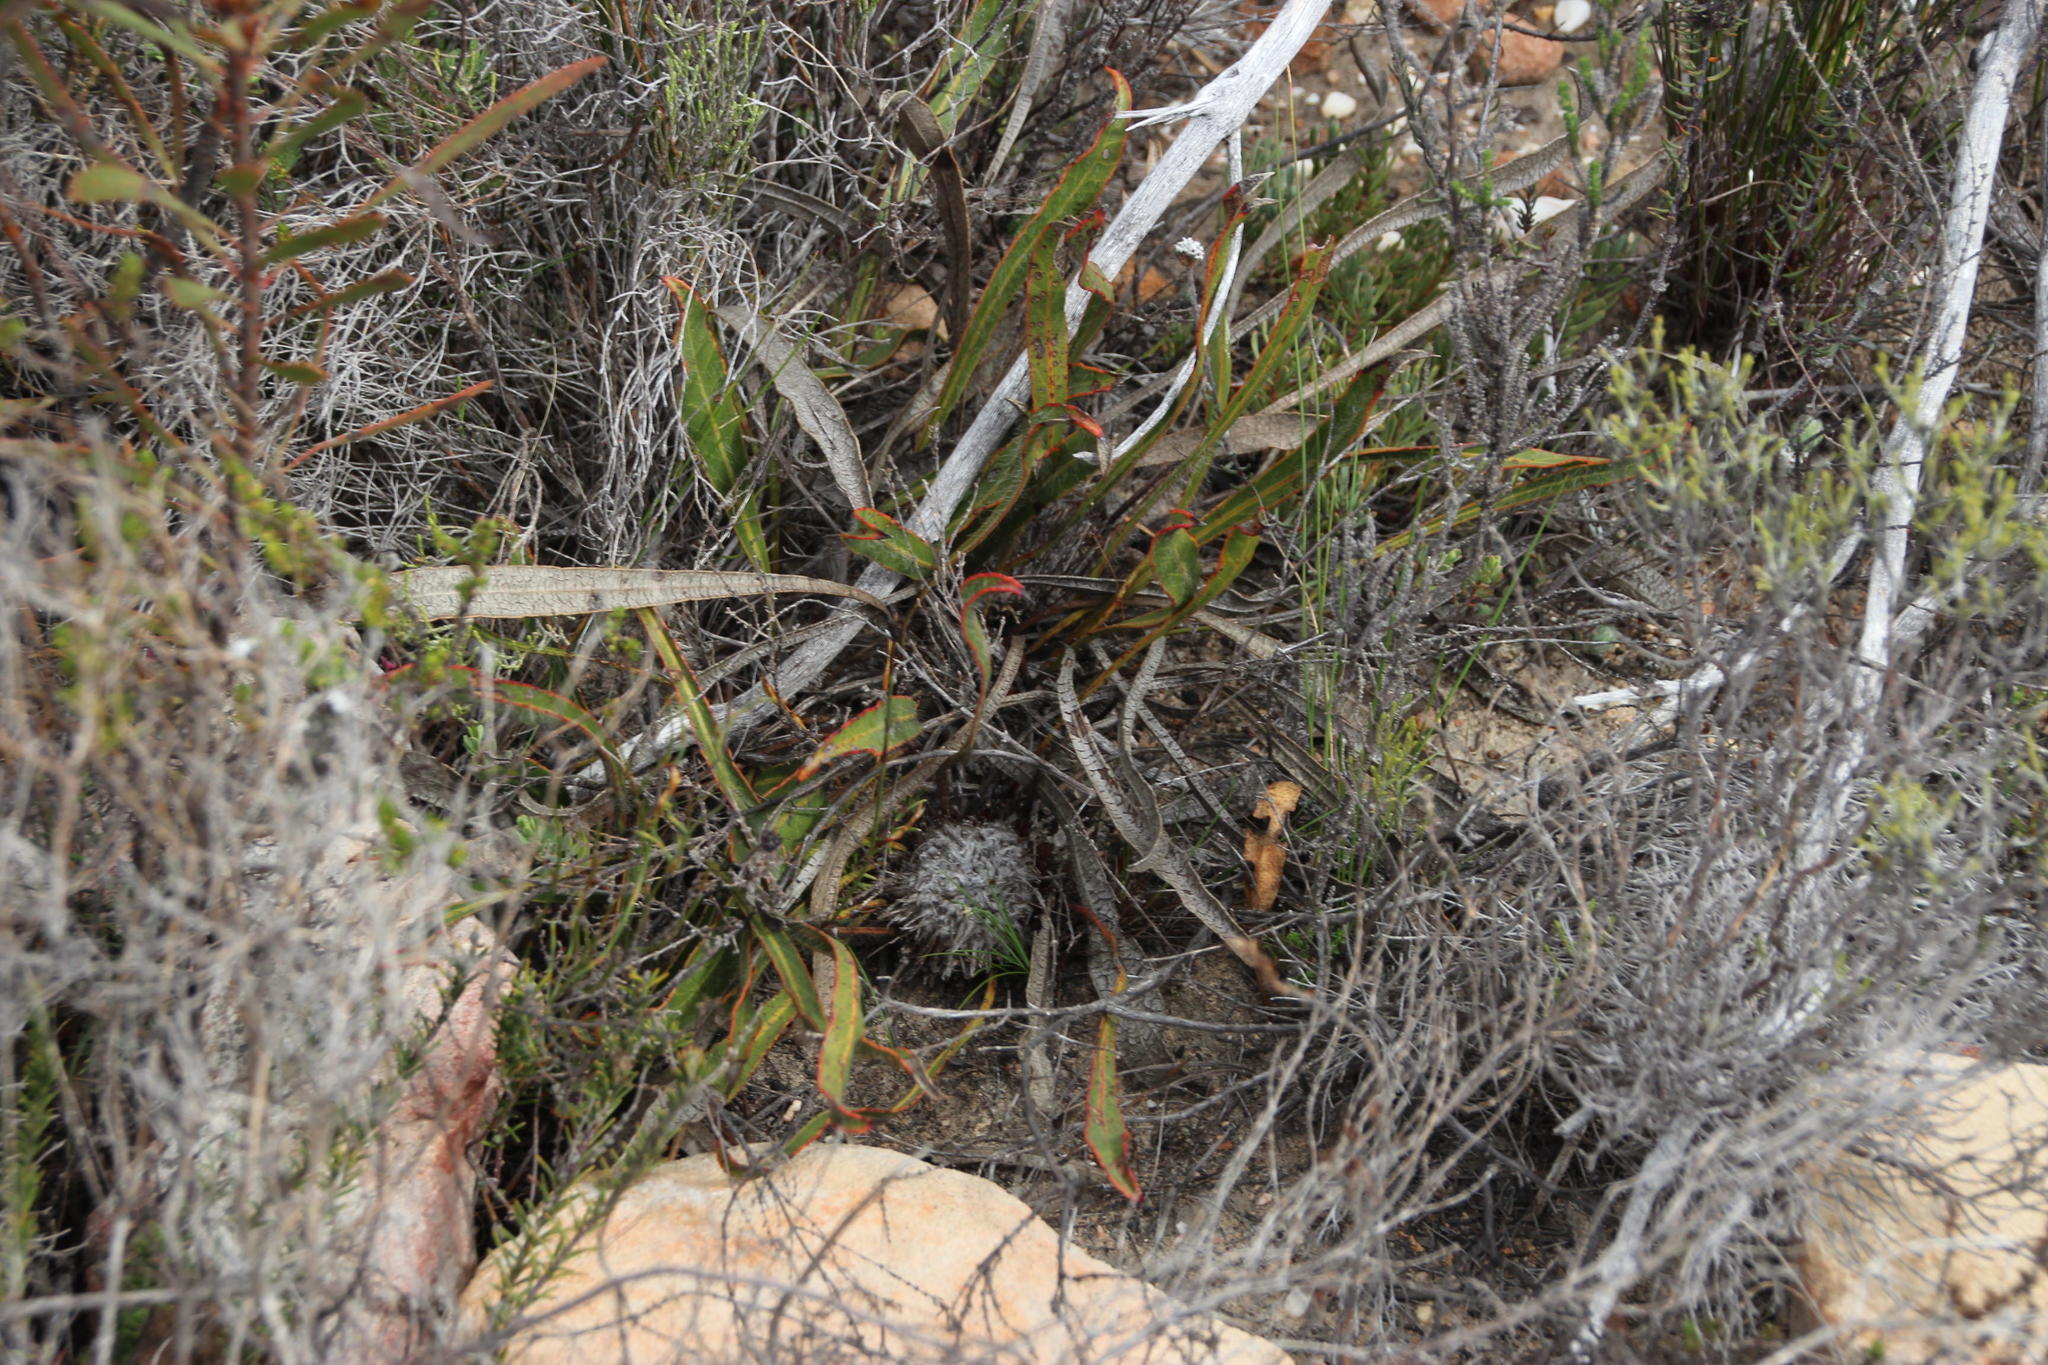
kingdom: Plantae
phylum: Tracheophyta
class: Magnoliopsida
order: Proteales
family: Proteaceae
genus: Protea
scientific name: Protea scolopendriifolia
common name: Harts-tongue-fern sugarbush
